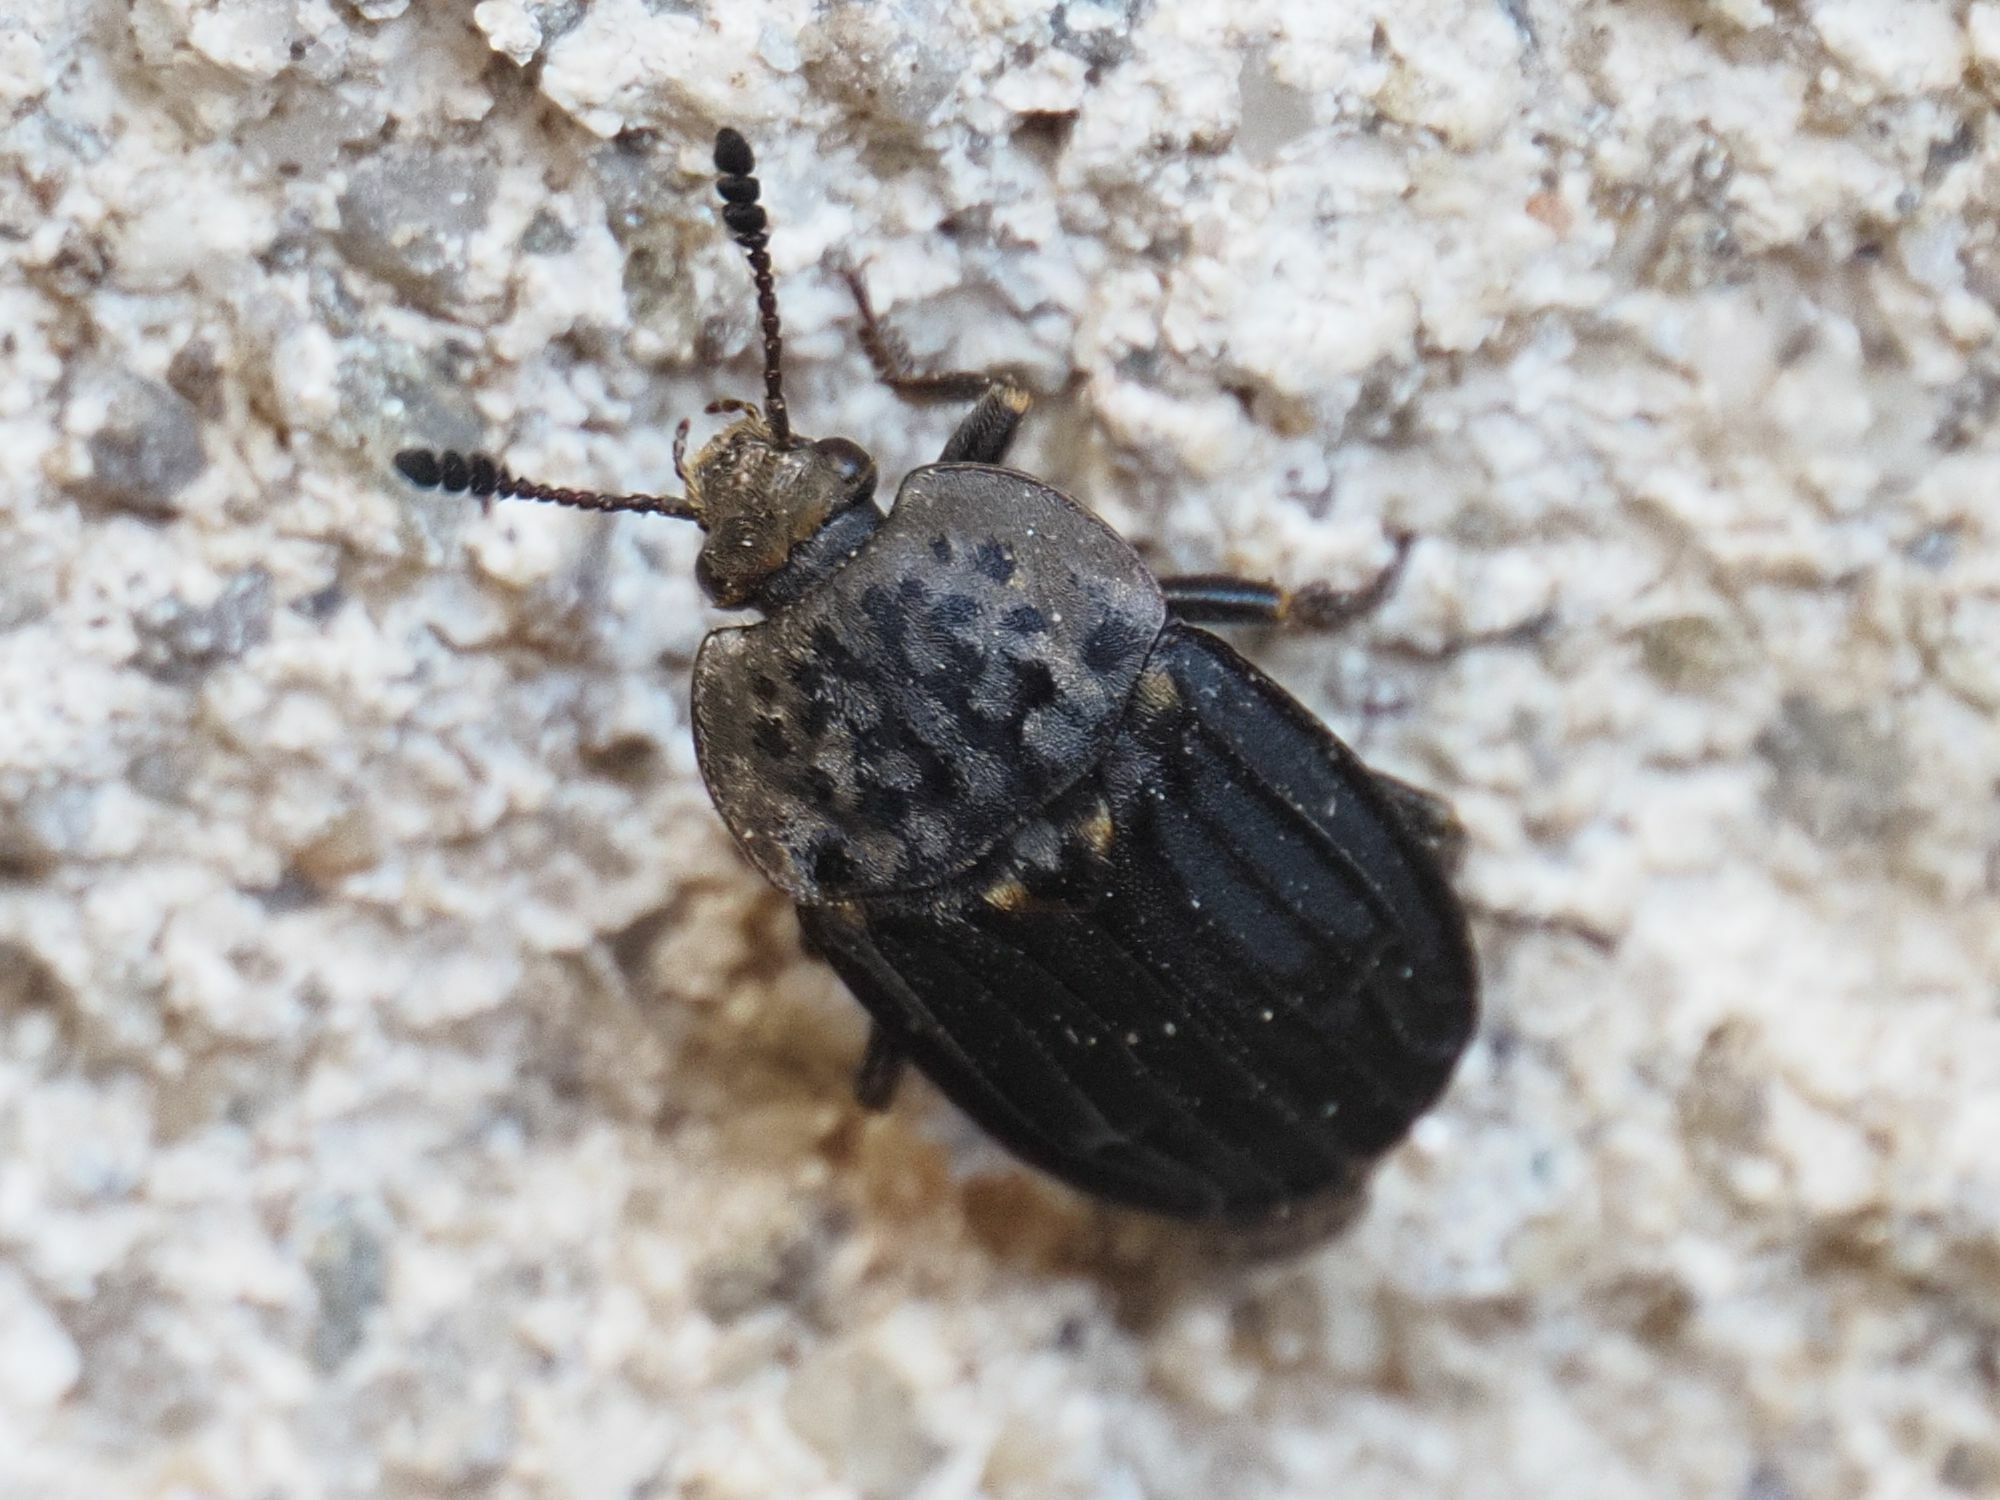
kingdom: Animalia
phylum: Arthropoda
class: Insecta
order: Coleoptera
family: Staphylinidae
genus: Thanatophilus
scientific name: Thanatophilus sinuatus
